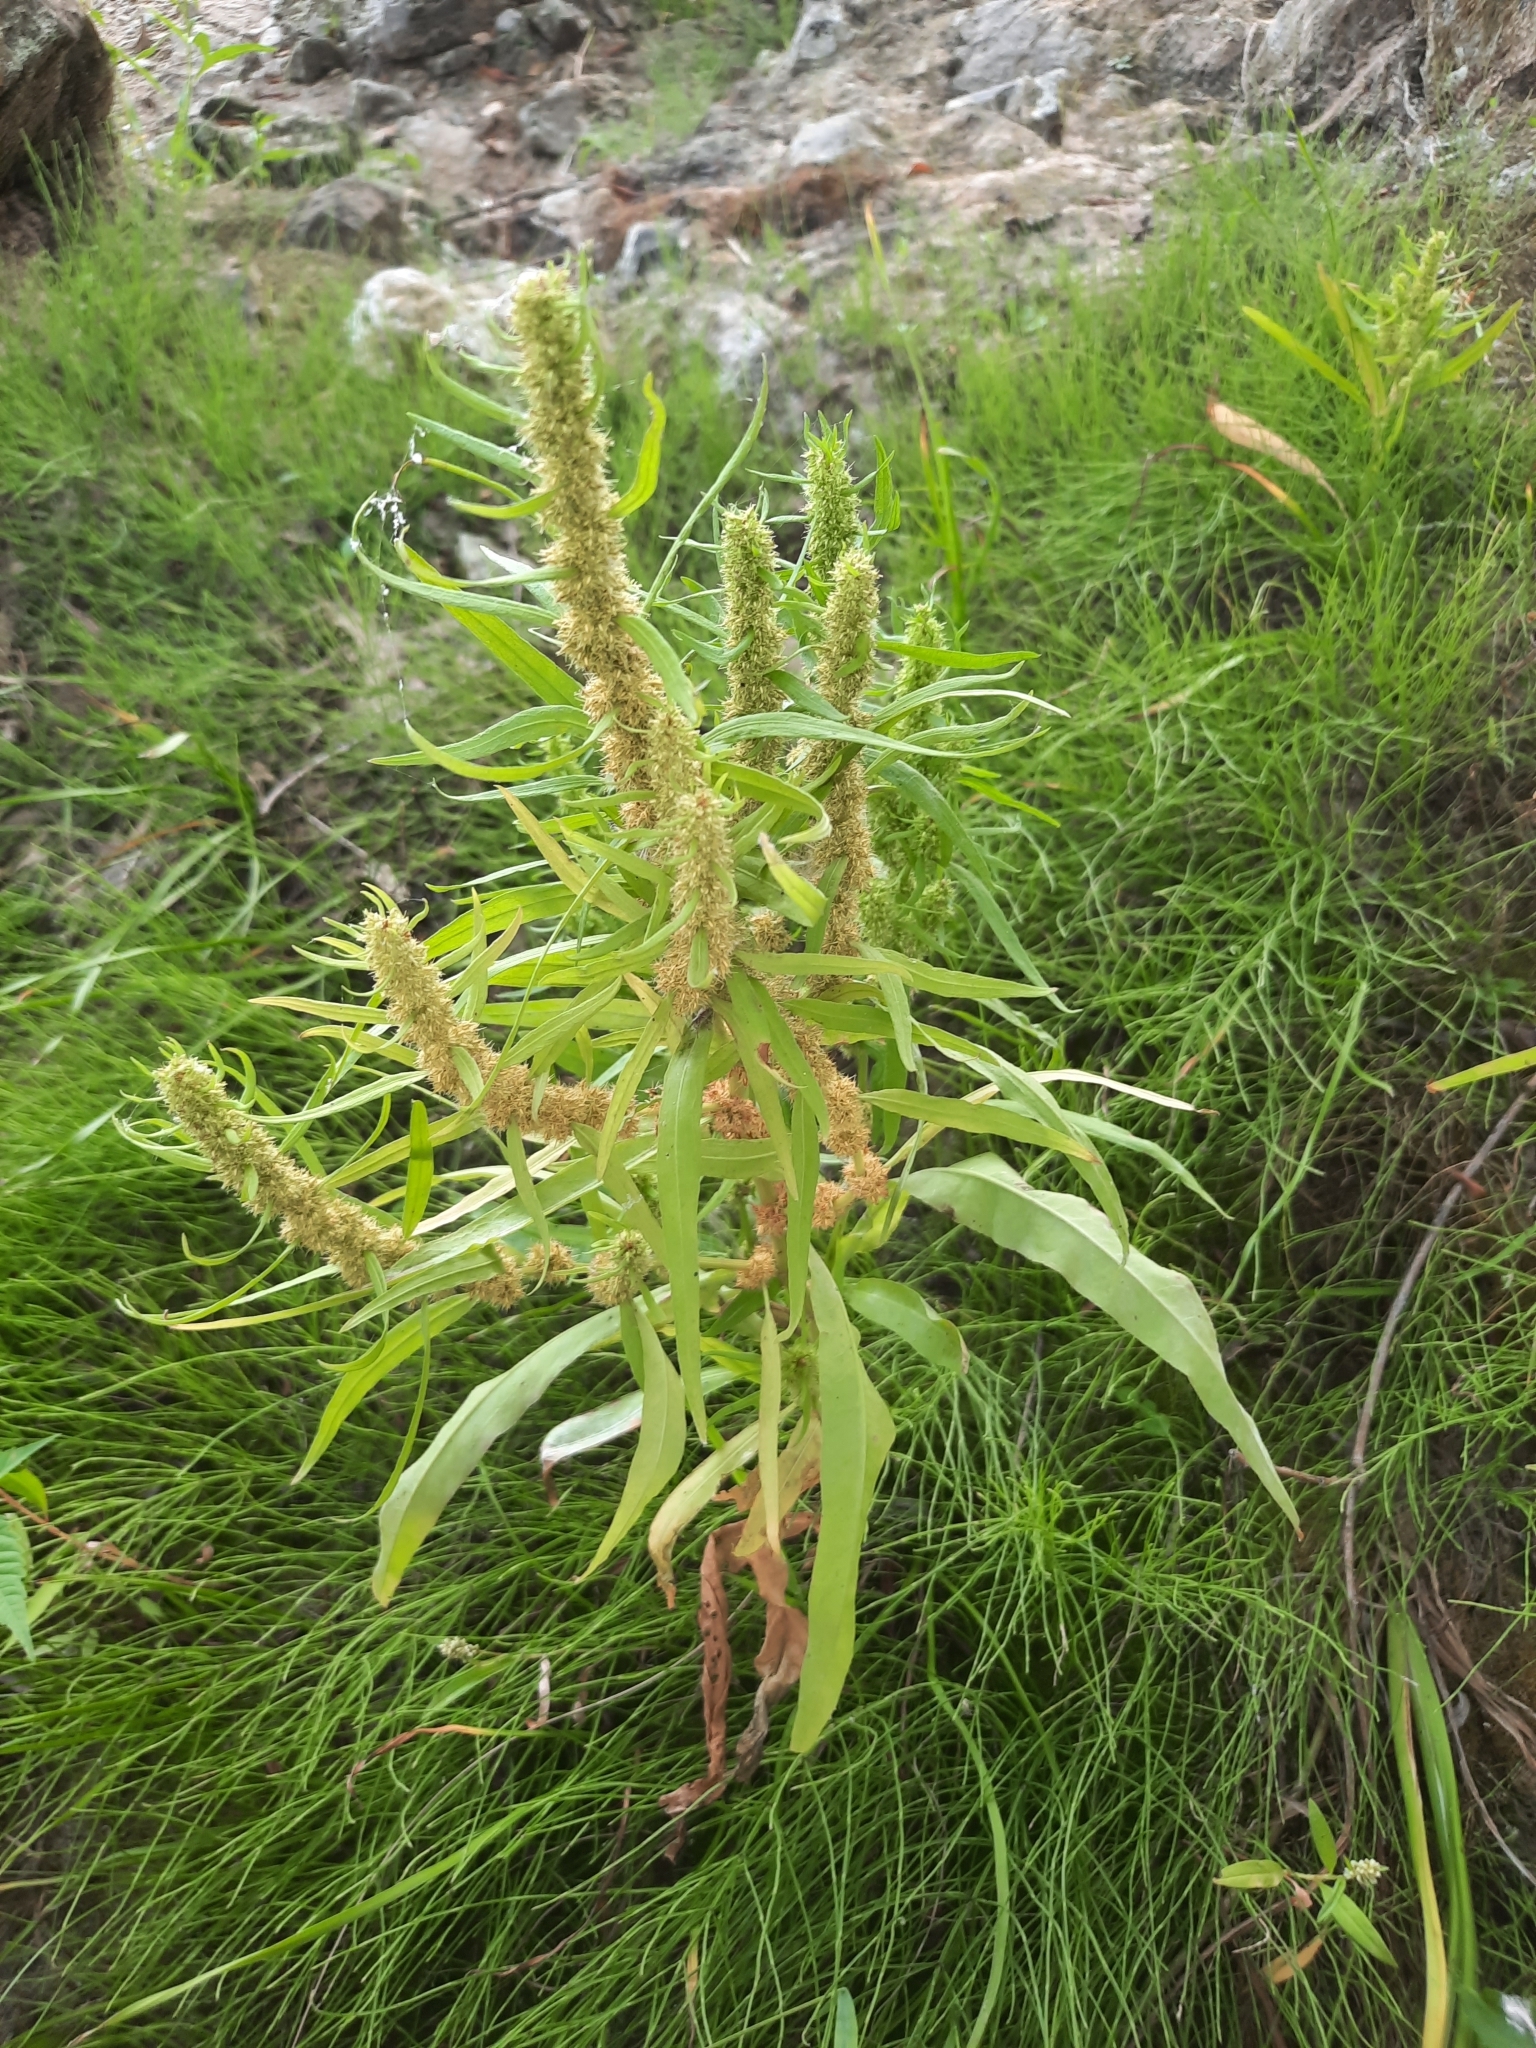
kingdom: Plantae
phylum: Tracheophyta
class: Magnoliopsida
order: Caryophyllales
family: Polygonaceae
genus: Rumex
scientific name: Rumex maritimus
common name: Golden dock
